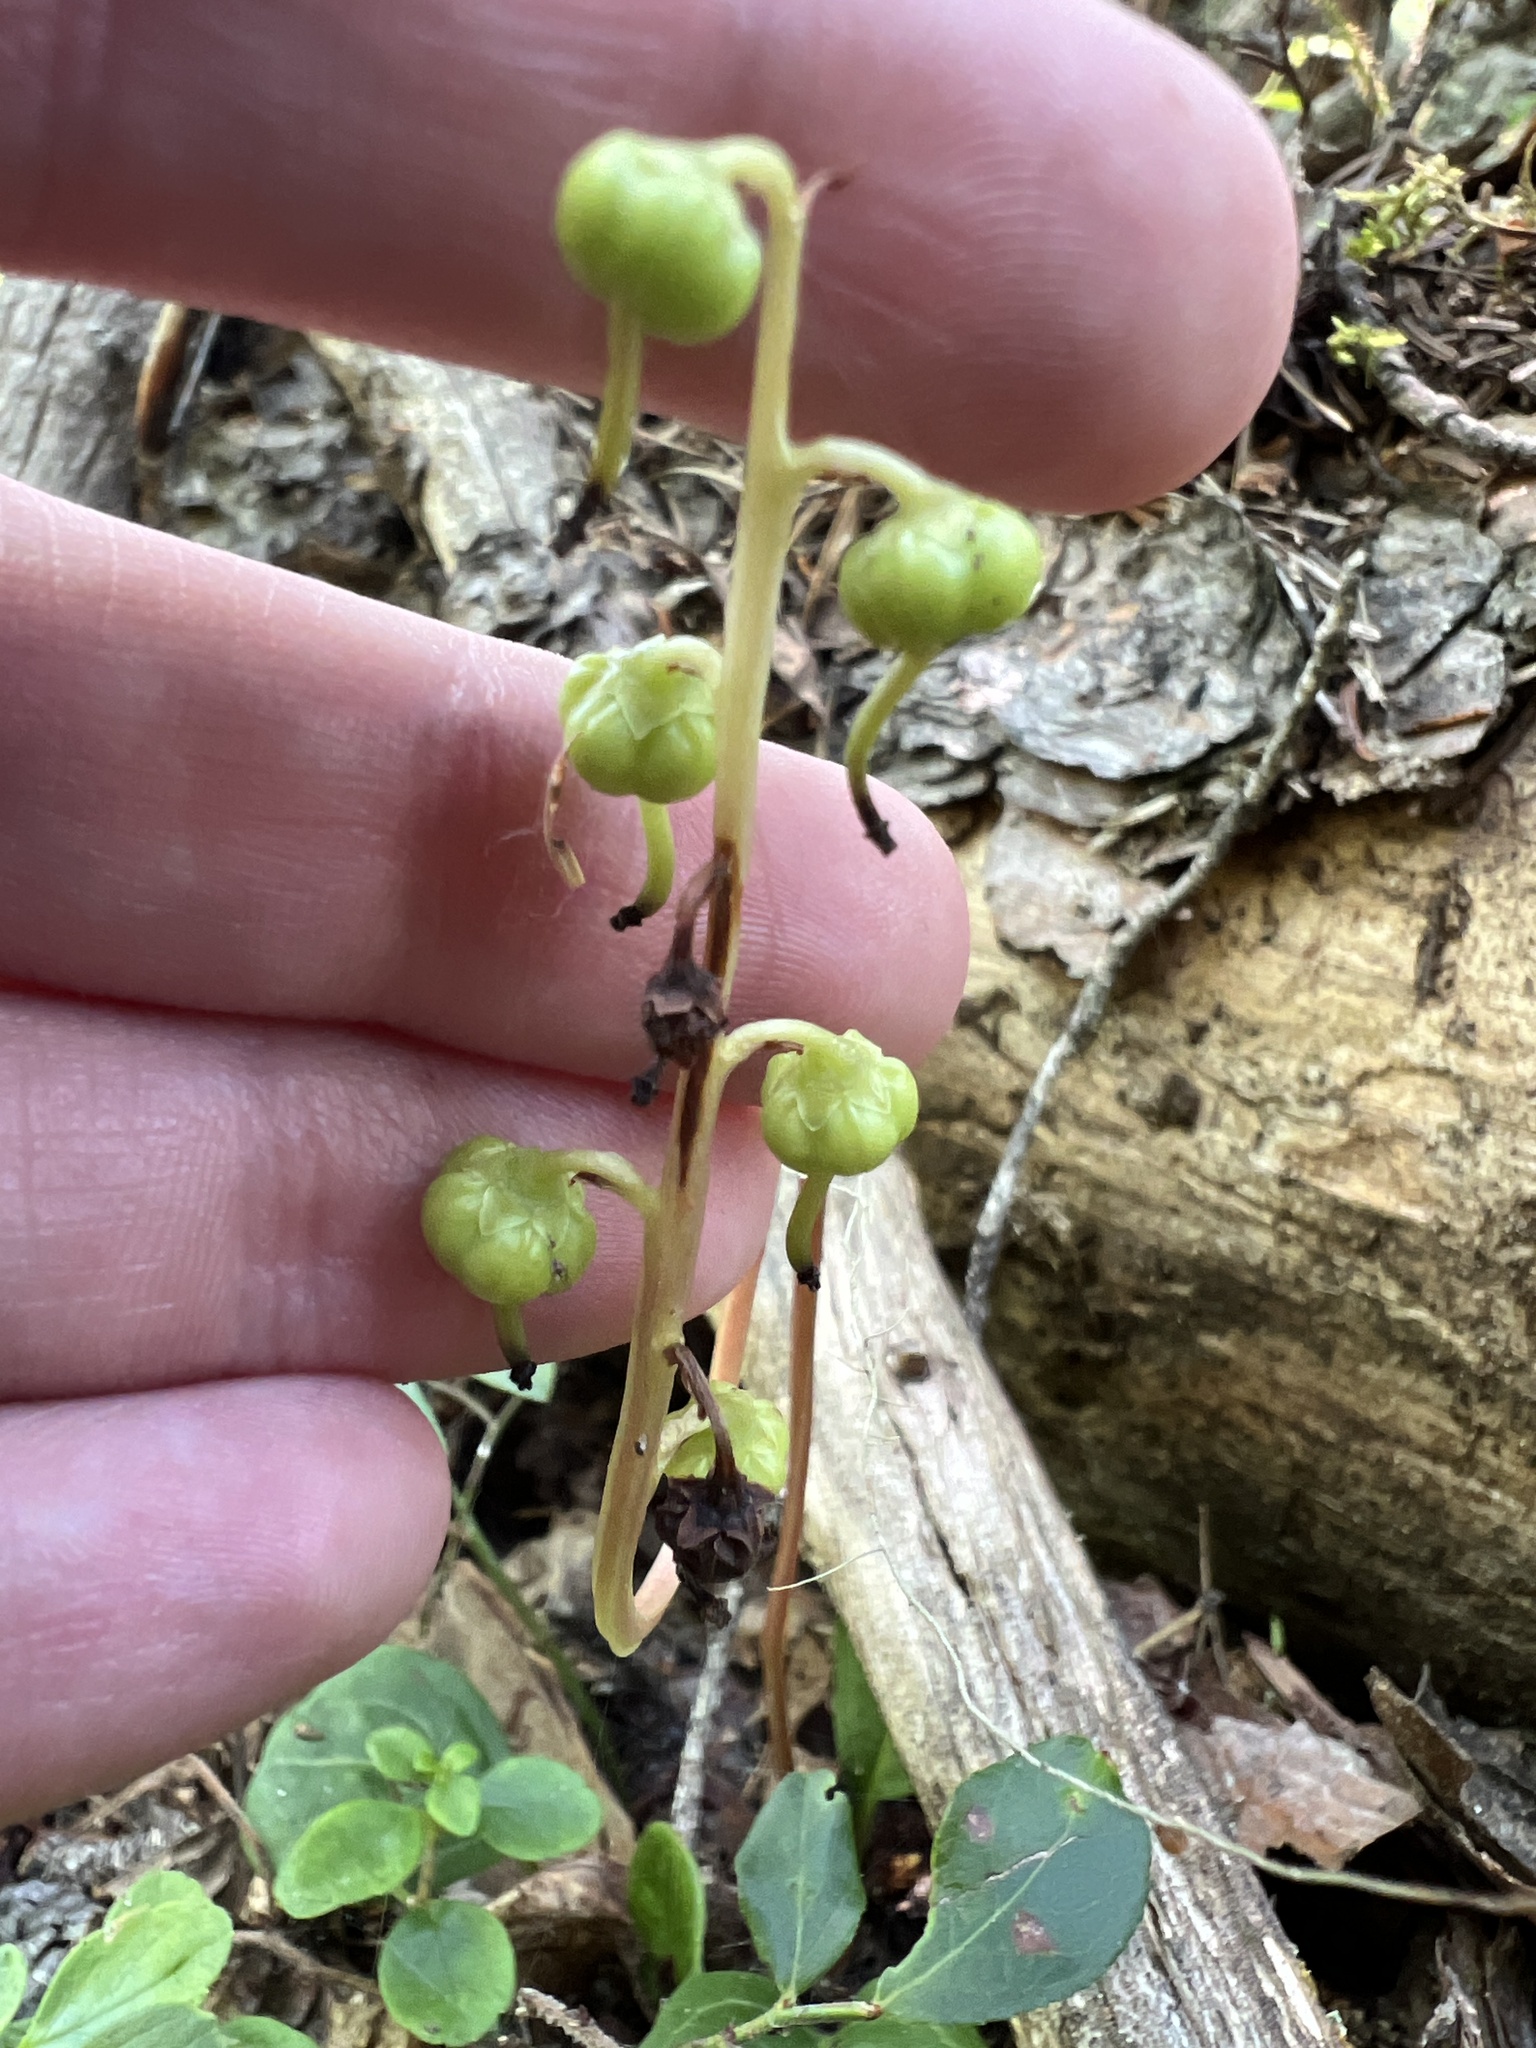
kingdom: Plantae
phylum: Tracheophyta
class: Magnoliopsida
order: Ericales
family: Ericaceae
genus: Pyrola
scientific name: Pyrola chlorantha
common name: Green wintergreen
